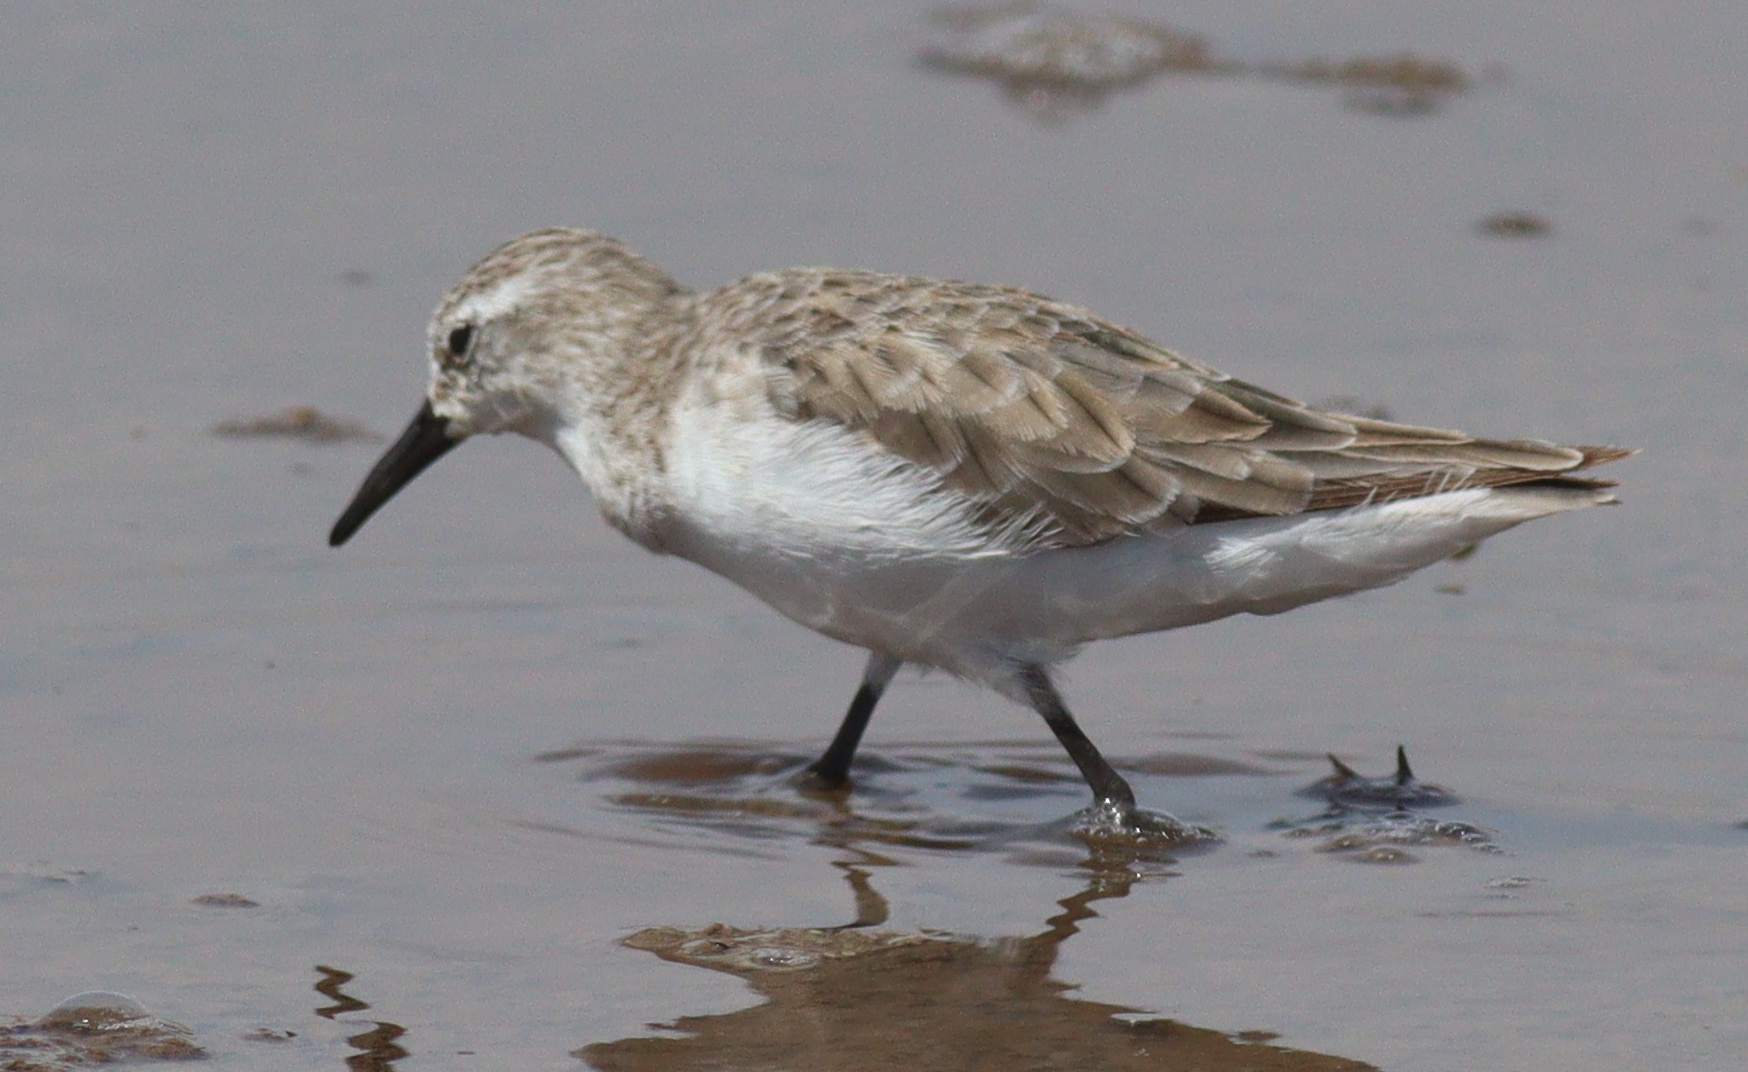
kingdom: Animalia
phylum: Chordata
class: Aves
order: Charadriiformes
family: Scolopacidae
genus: Calidris
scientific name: Calidris minuta
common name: Little stint
